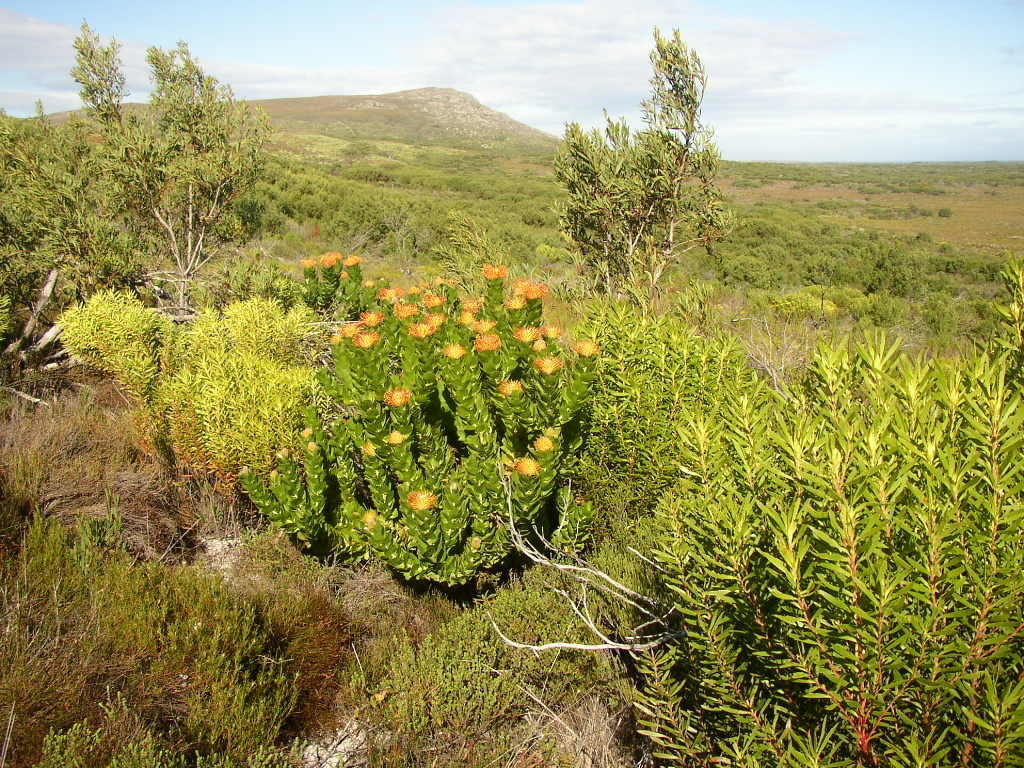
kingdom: Plantae
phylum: Tracheophyta
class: Magnoliopsida
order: Proteales
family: Proteaceae
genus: Leucospermum
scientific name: Leucospermum patersonii
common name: False tree pincushion
